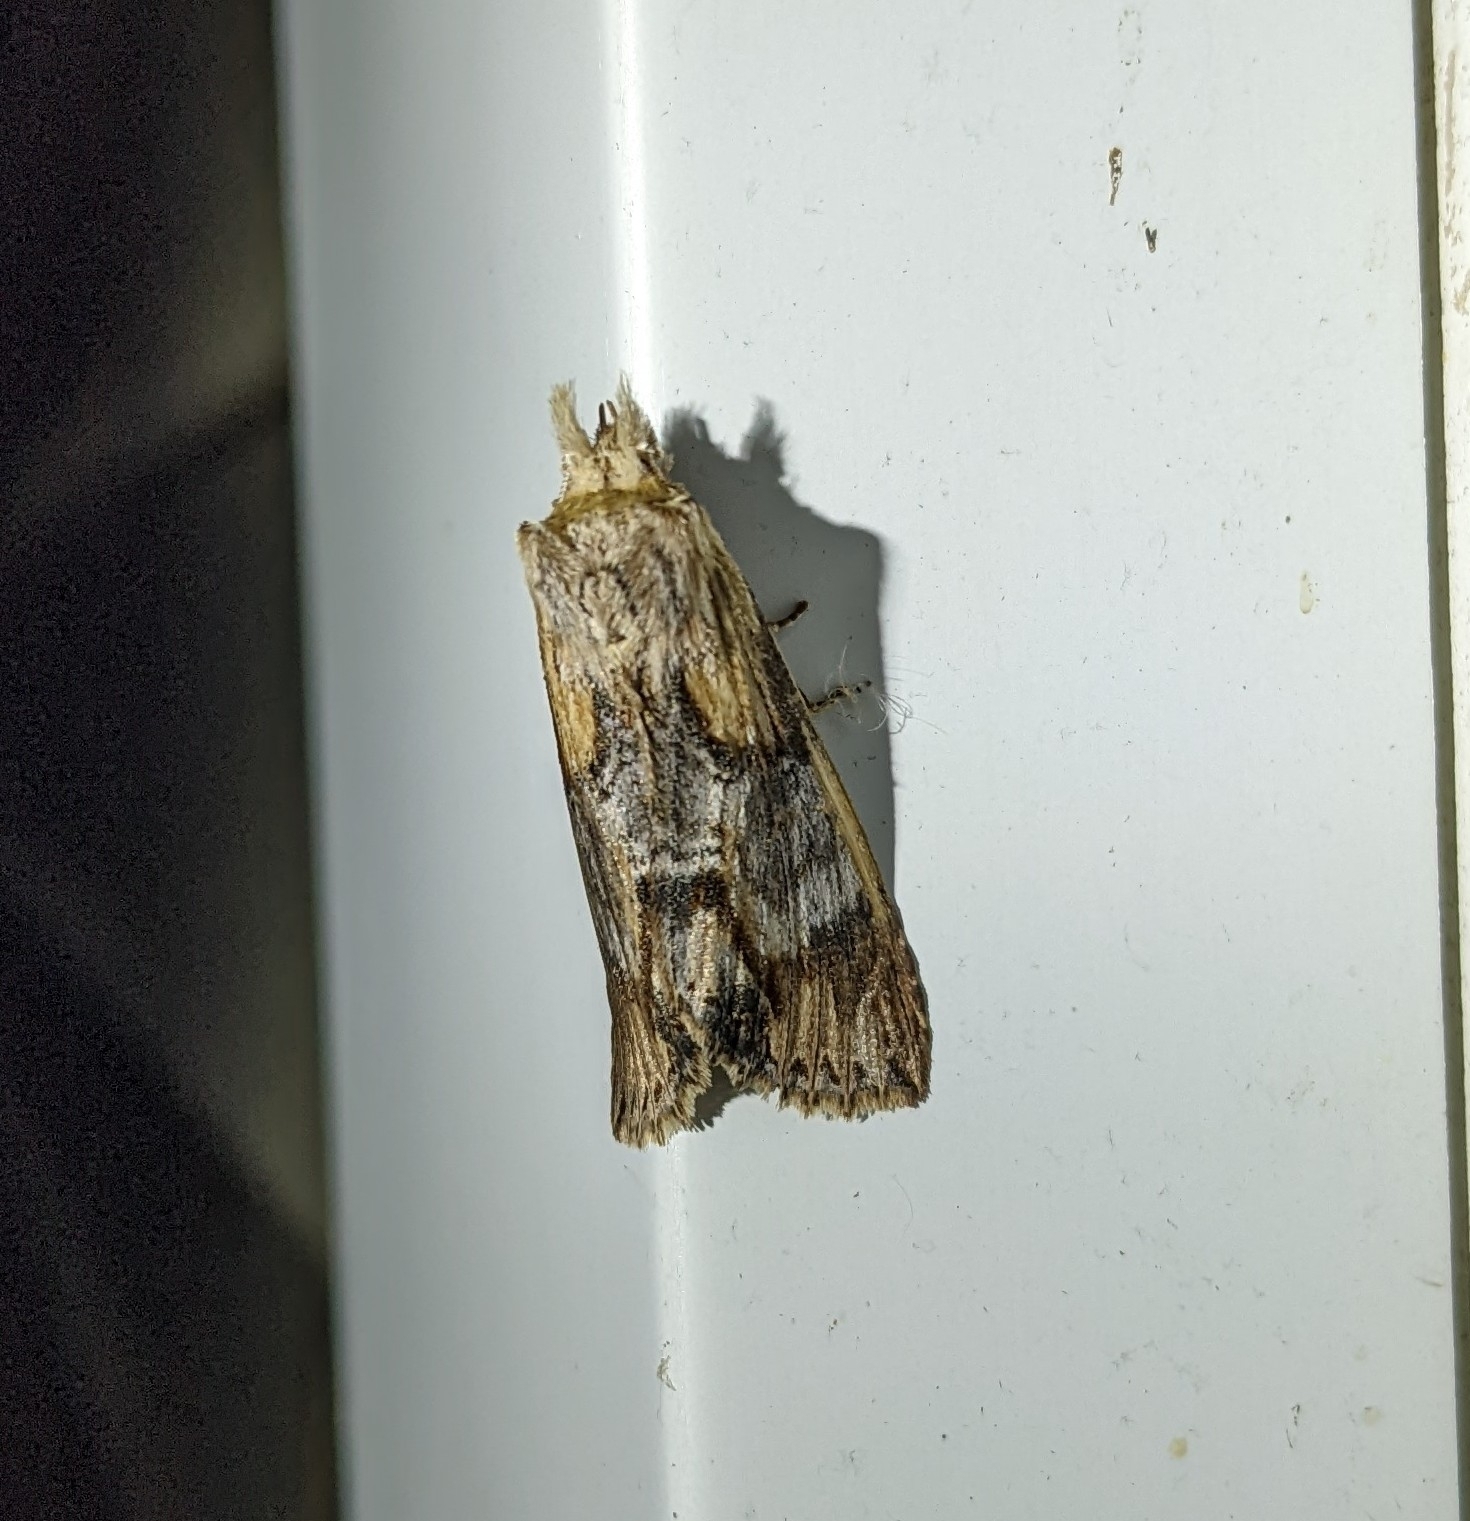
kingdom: Animalia
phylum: Arthropoda
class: Insecta
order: Lepidoptera
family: Notodontidae
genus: Dasylophia
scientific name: Dasylophia thyatiroides
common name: Gray-patched prominent
